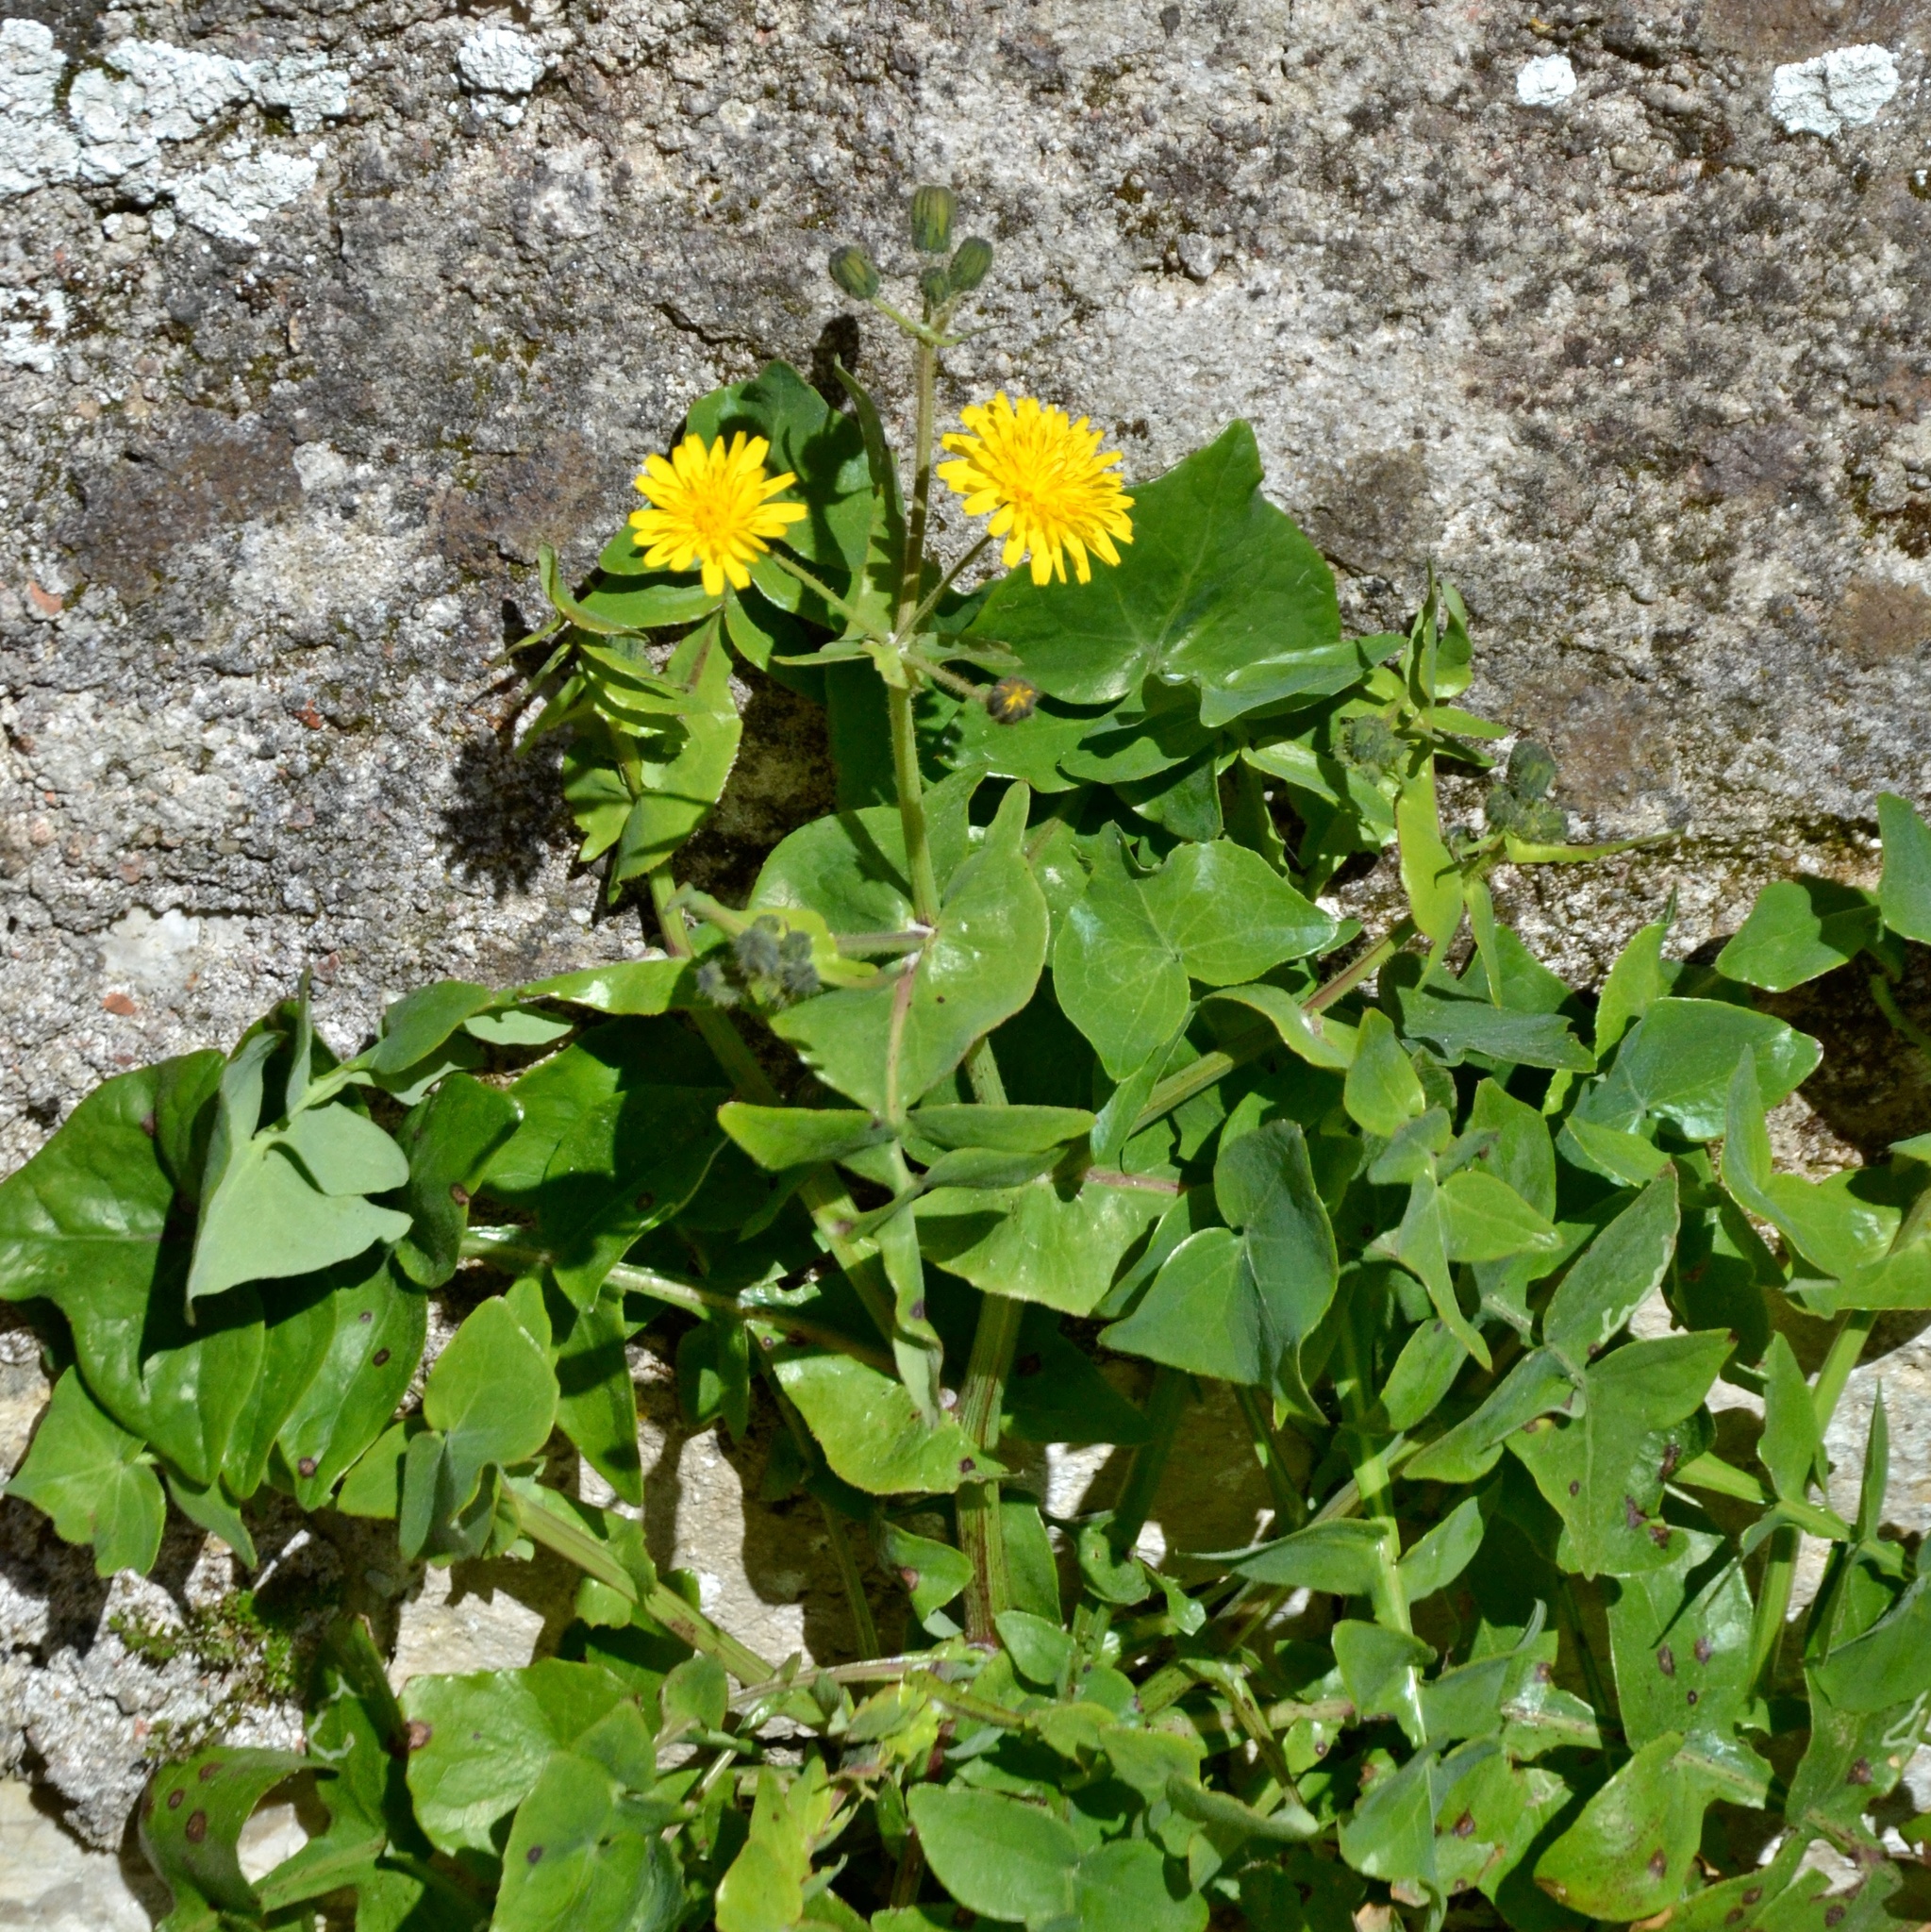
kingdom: Plantae
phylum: Tracheophyta
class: Magnoliopsida
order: Asterales
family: Asteraceae
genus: Sonchus
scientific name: Sonchus tenerrimus
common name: Clammy sowthistle
